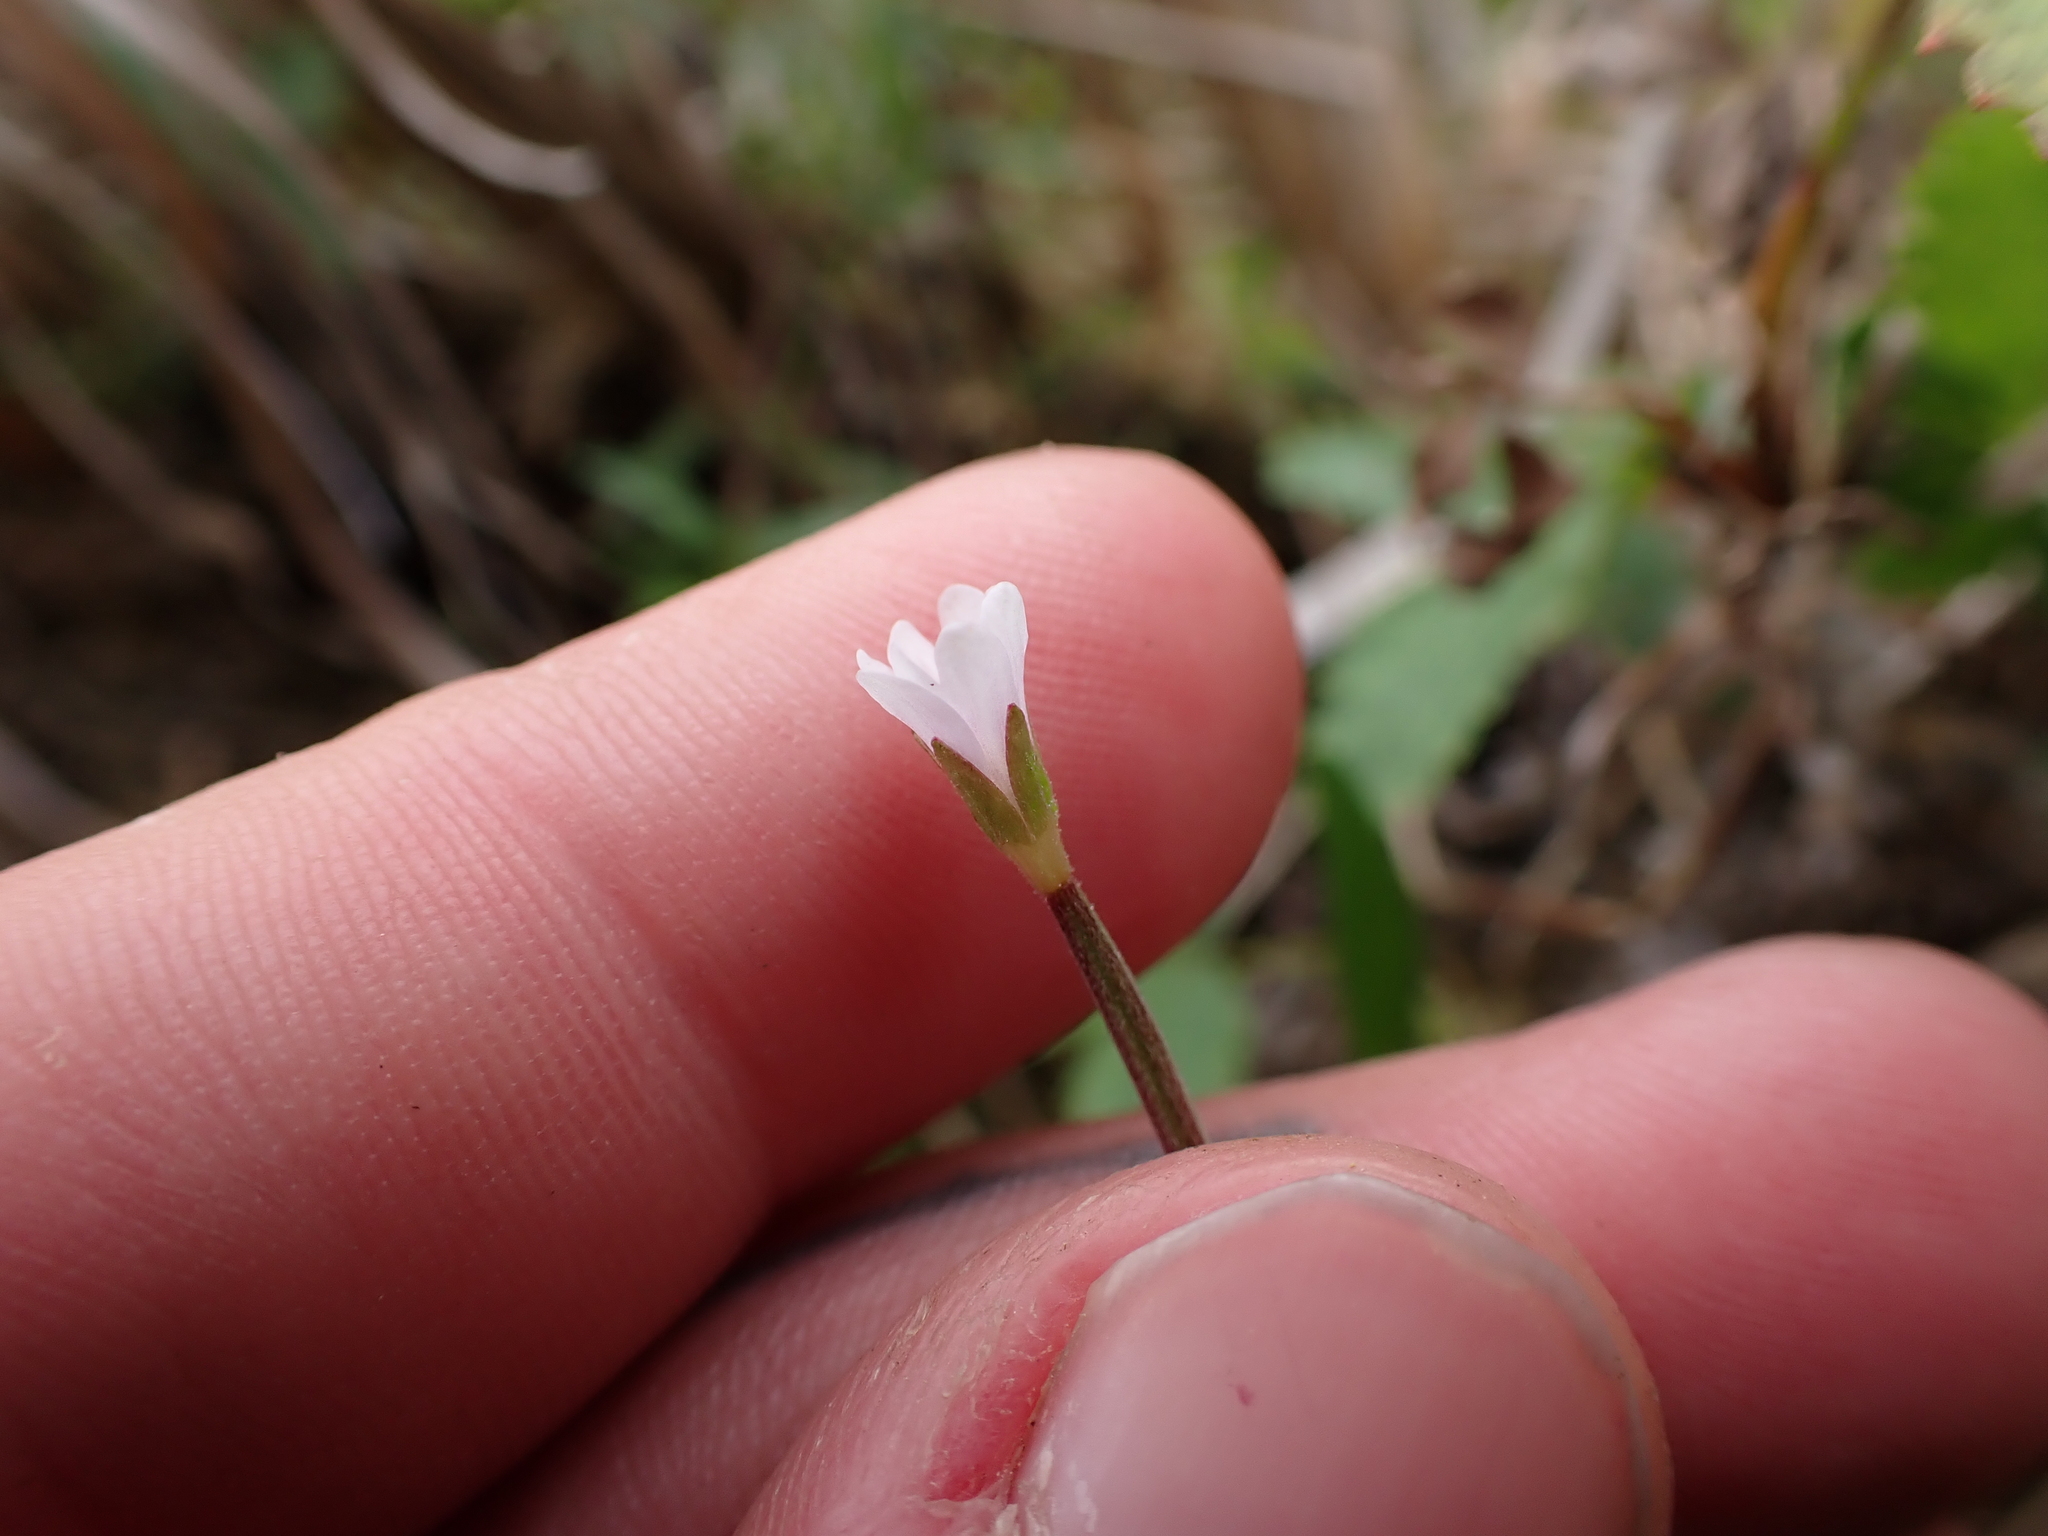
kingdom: Plantae
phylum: Tracheophyta
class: Magnoliopsida
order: Myrtales
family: Onagraceae
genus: Epilobium
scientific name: Epilobium palustre
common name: Marsh willowherb
